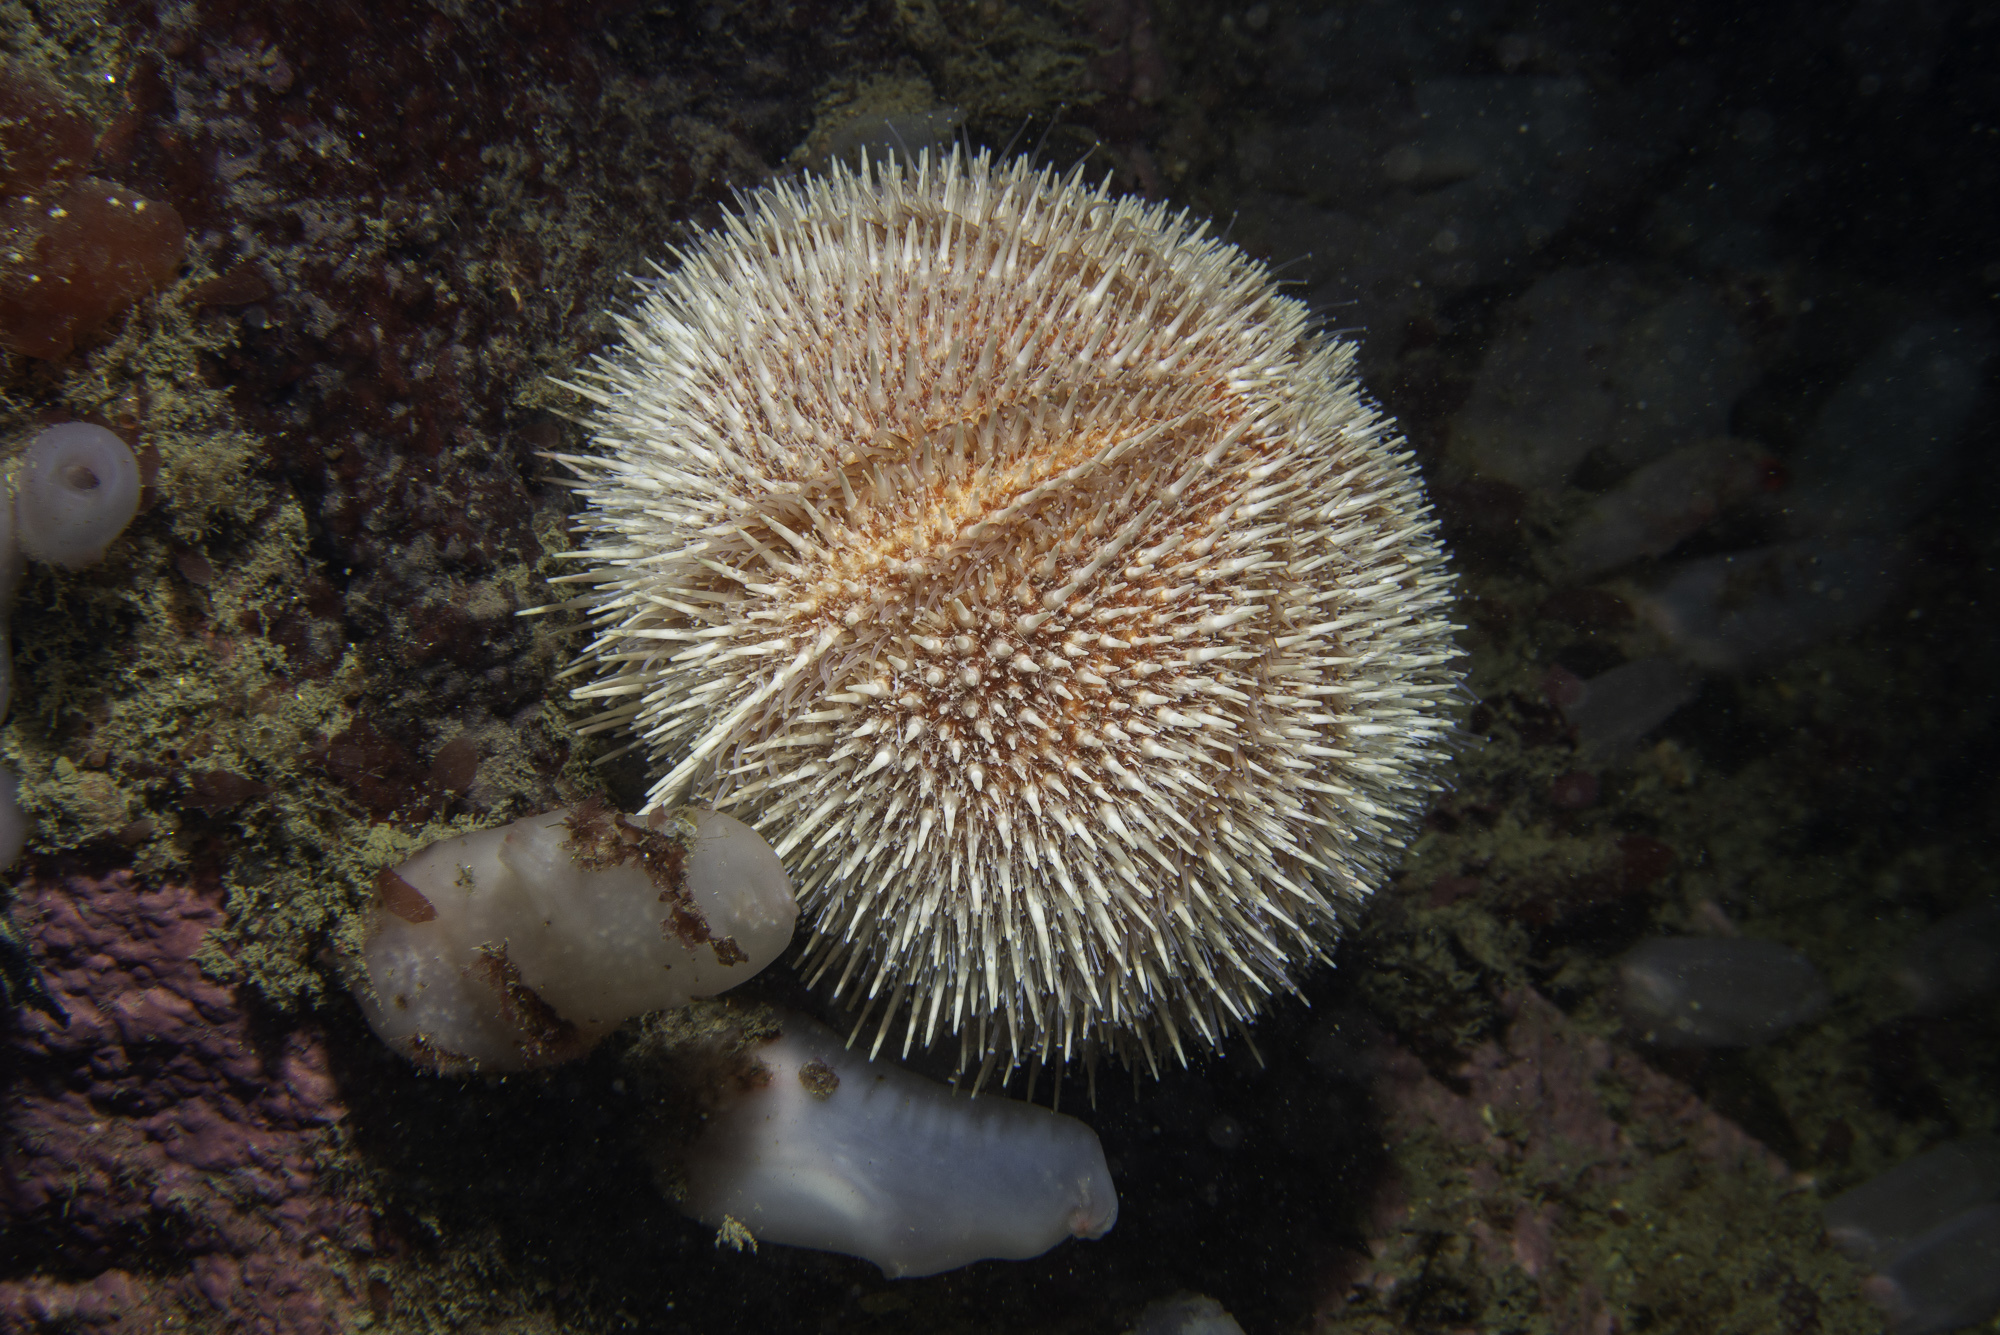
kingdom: Animalia
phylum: Echinodermata
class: Echinoidea
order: Camarodonta
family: Echinidae
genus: Echinus
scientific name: Echinus esculentus
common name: Edible sea urchin
